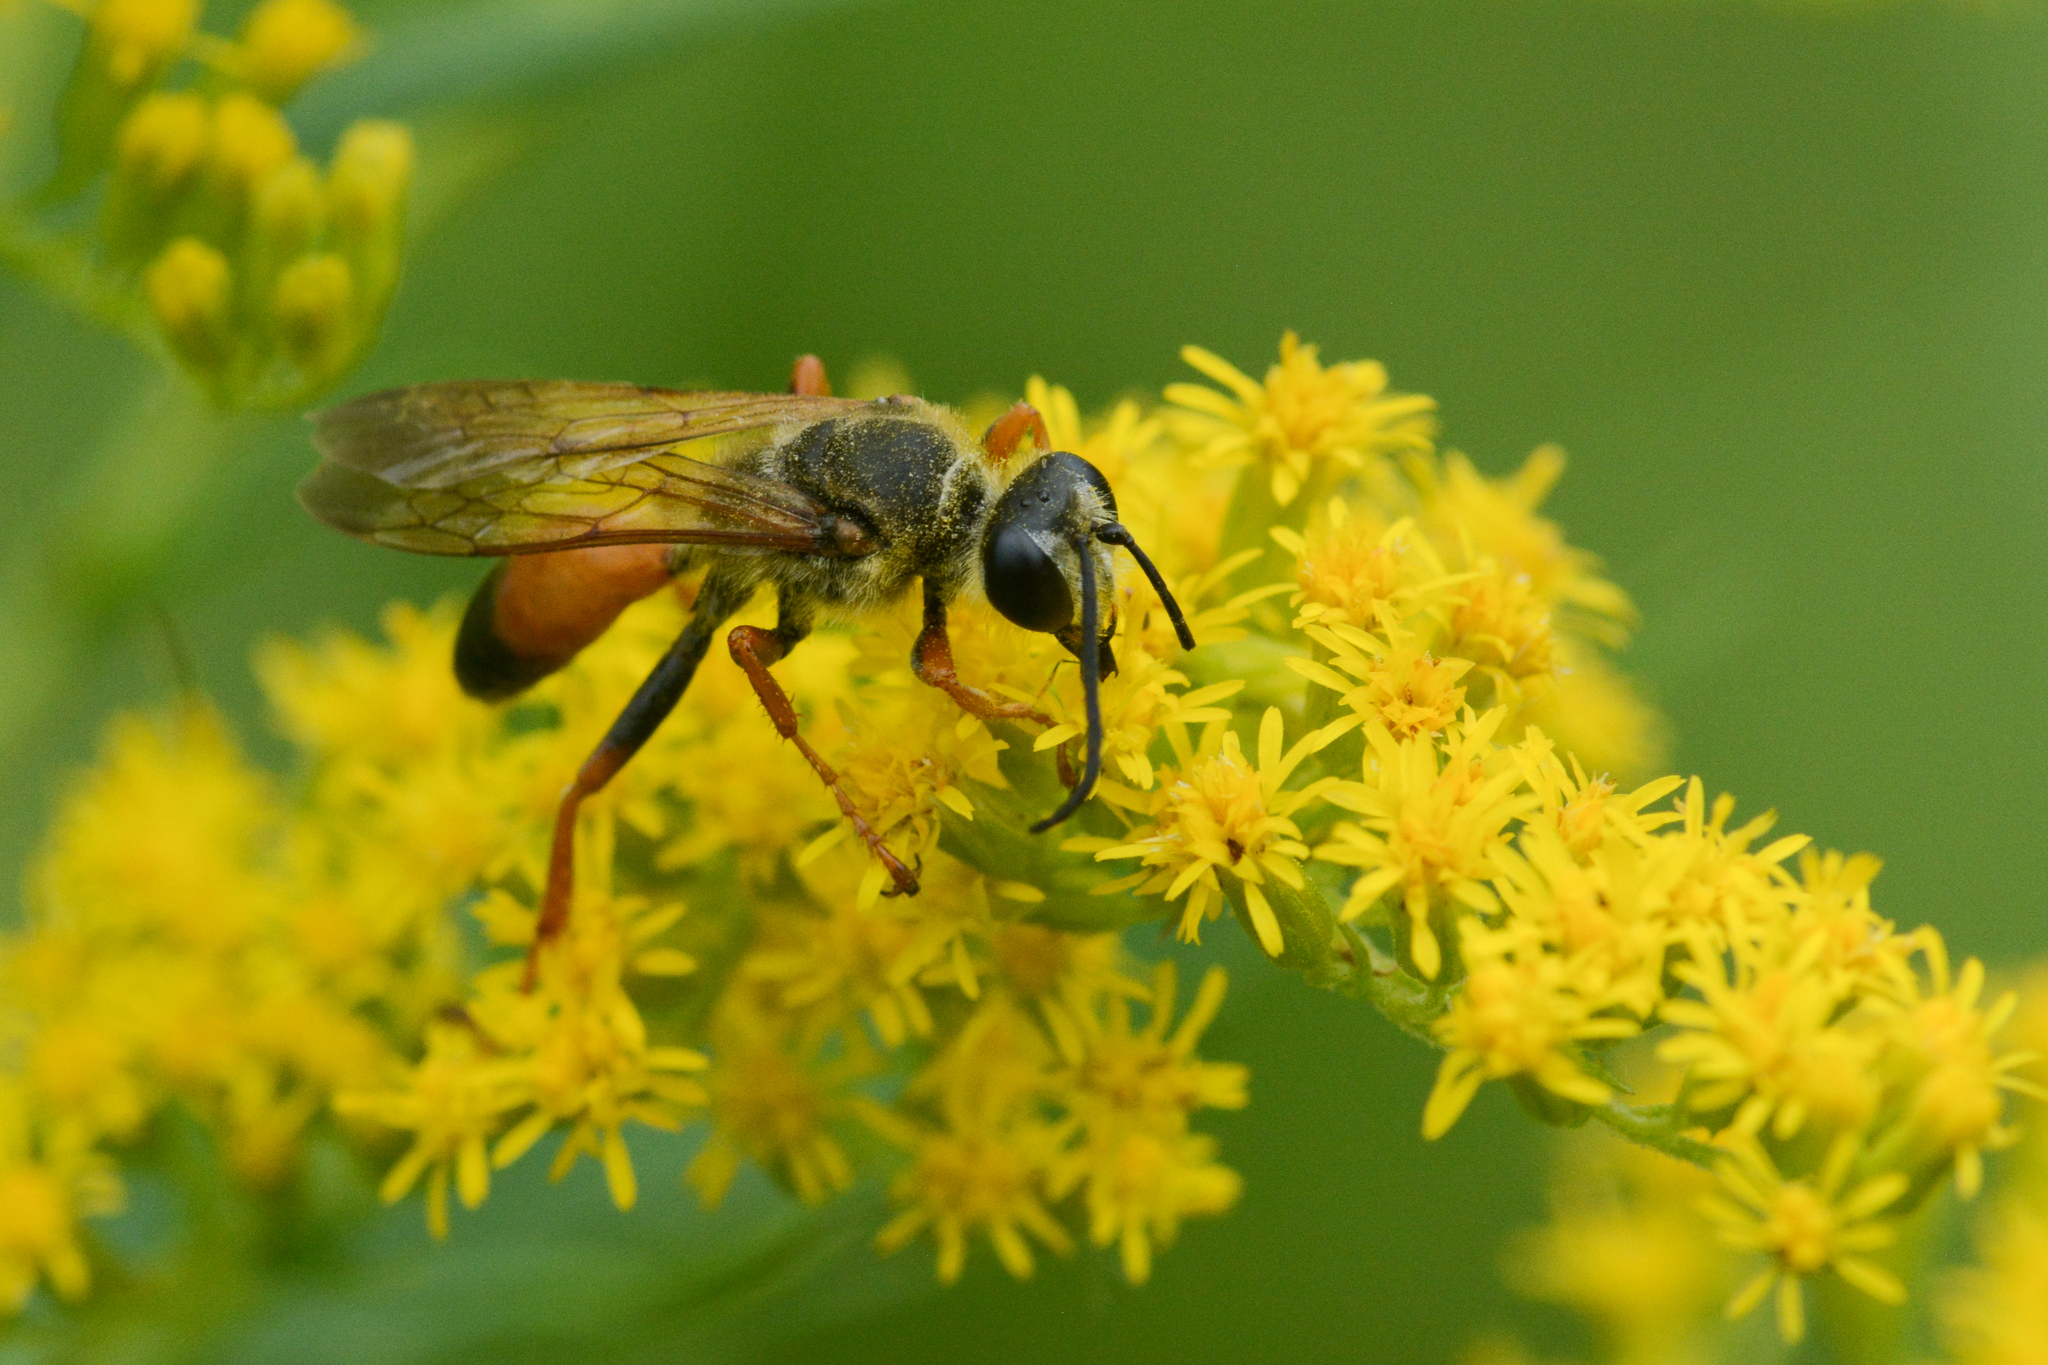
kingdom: Animalia
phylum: Arthropoda
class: Insecta
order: Hymenoptera
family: Sphecidae
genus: Sphex
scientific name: Sphex ichneumoneus
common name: Great golden digger wasp
